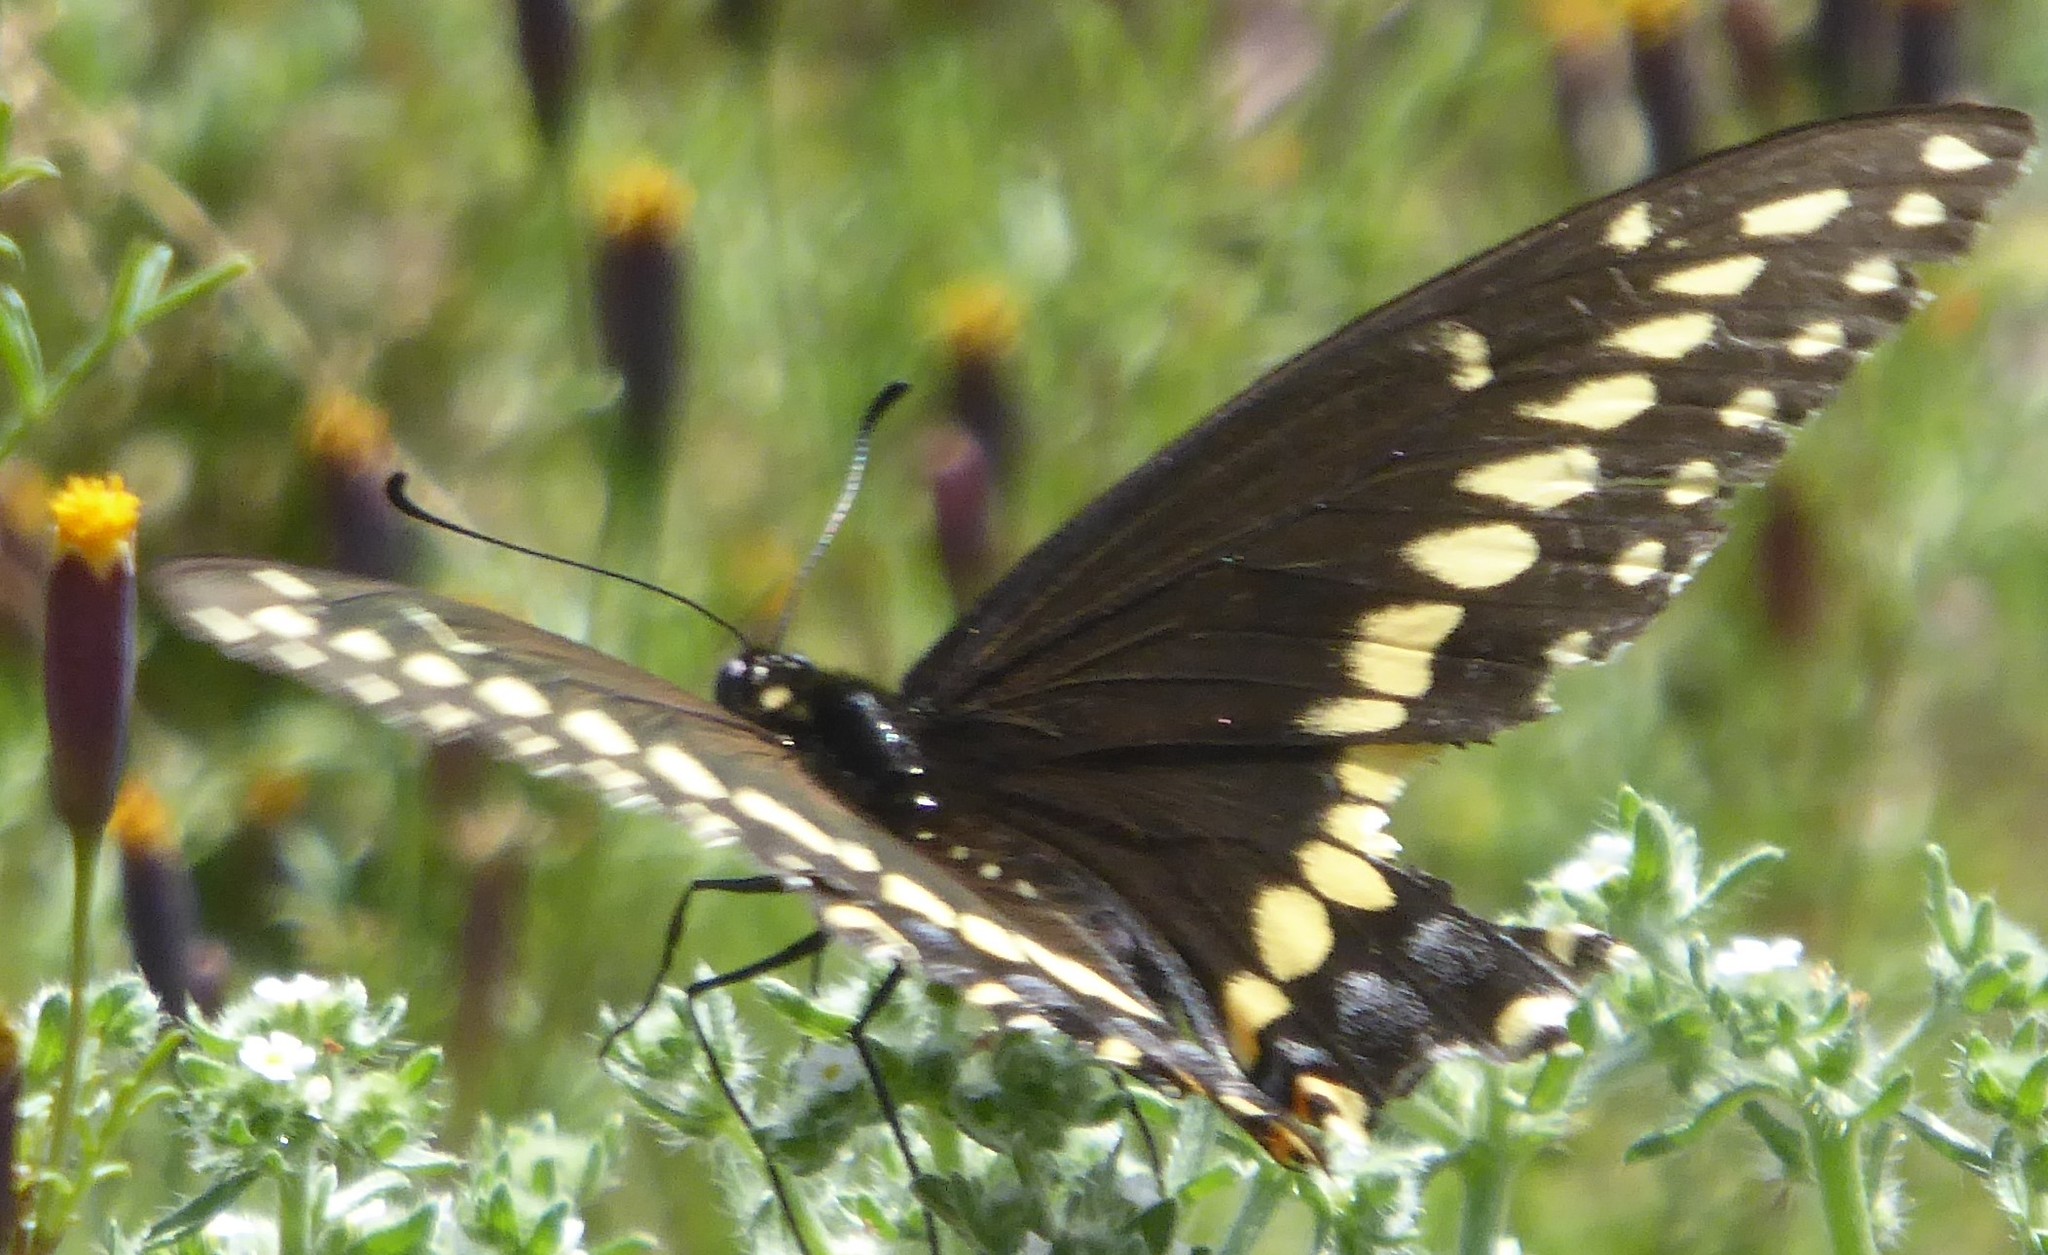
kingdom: Animalia
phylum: Arthropoda
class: Insecta
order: Lepidoptera
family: Papilionidae
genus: Papilio
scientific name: Papilio polyxenes
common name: Black swallowtail
